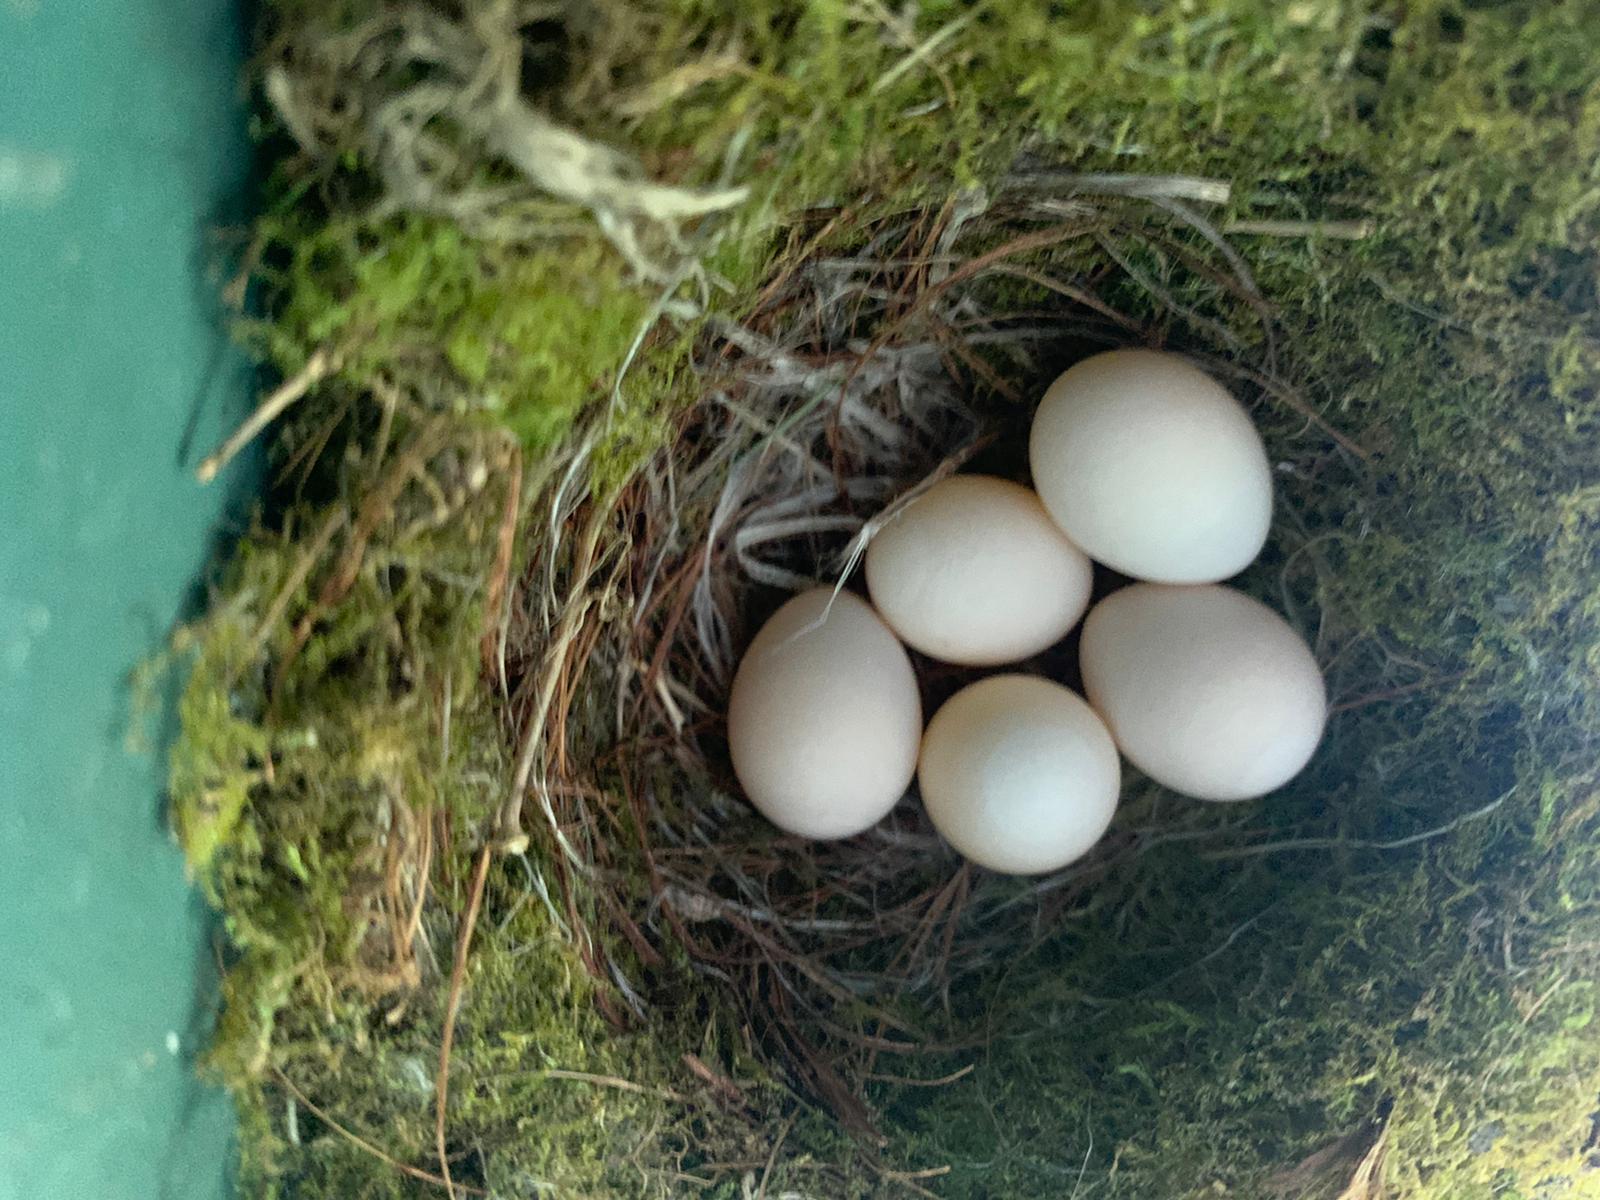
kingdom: Animalia
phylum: Chordata
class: Aves
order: Passeriformes
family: Tyrannidae
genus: Sayornis
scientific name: Sayornis phoebe
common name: Eastern phoebe
